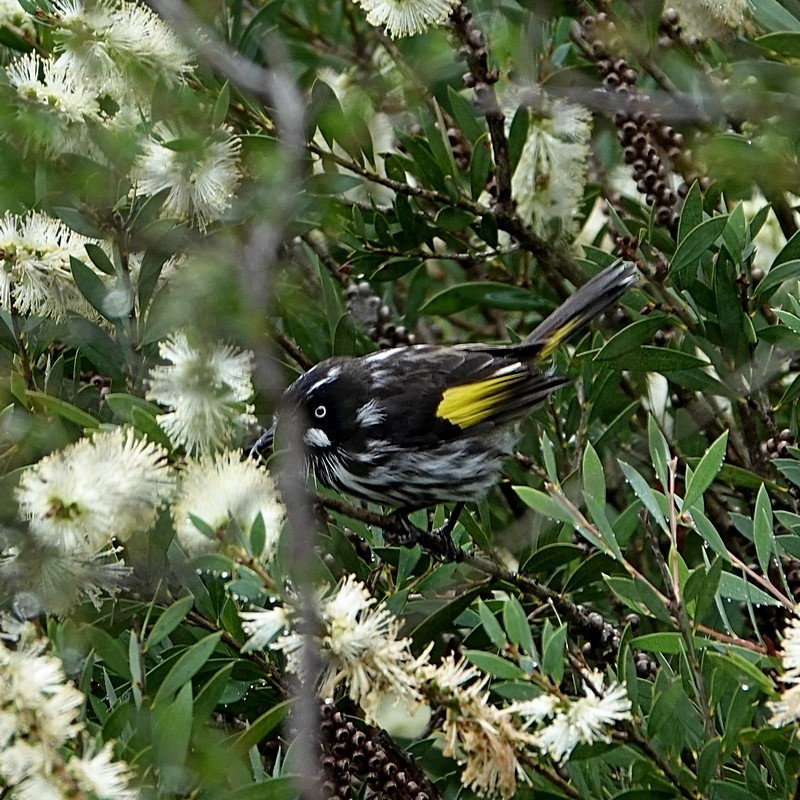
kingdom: Animalia
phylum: Chordata
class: Aves
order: Passeriformes
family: Meliphagidae
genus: Phylidonyris
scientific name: Phylidonyris novaehollandiae
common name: New holland honeyeater
